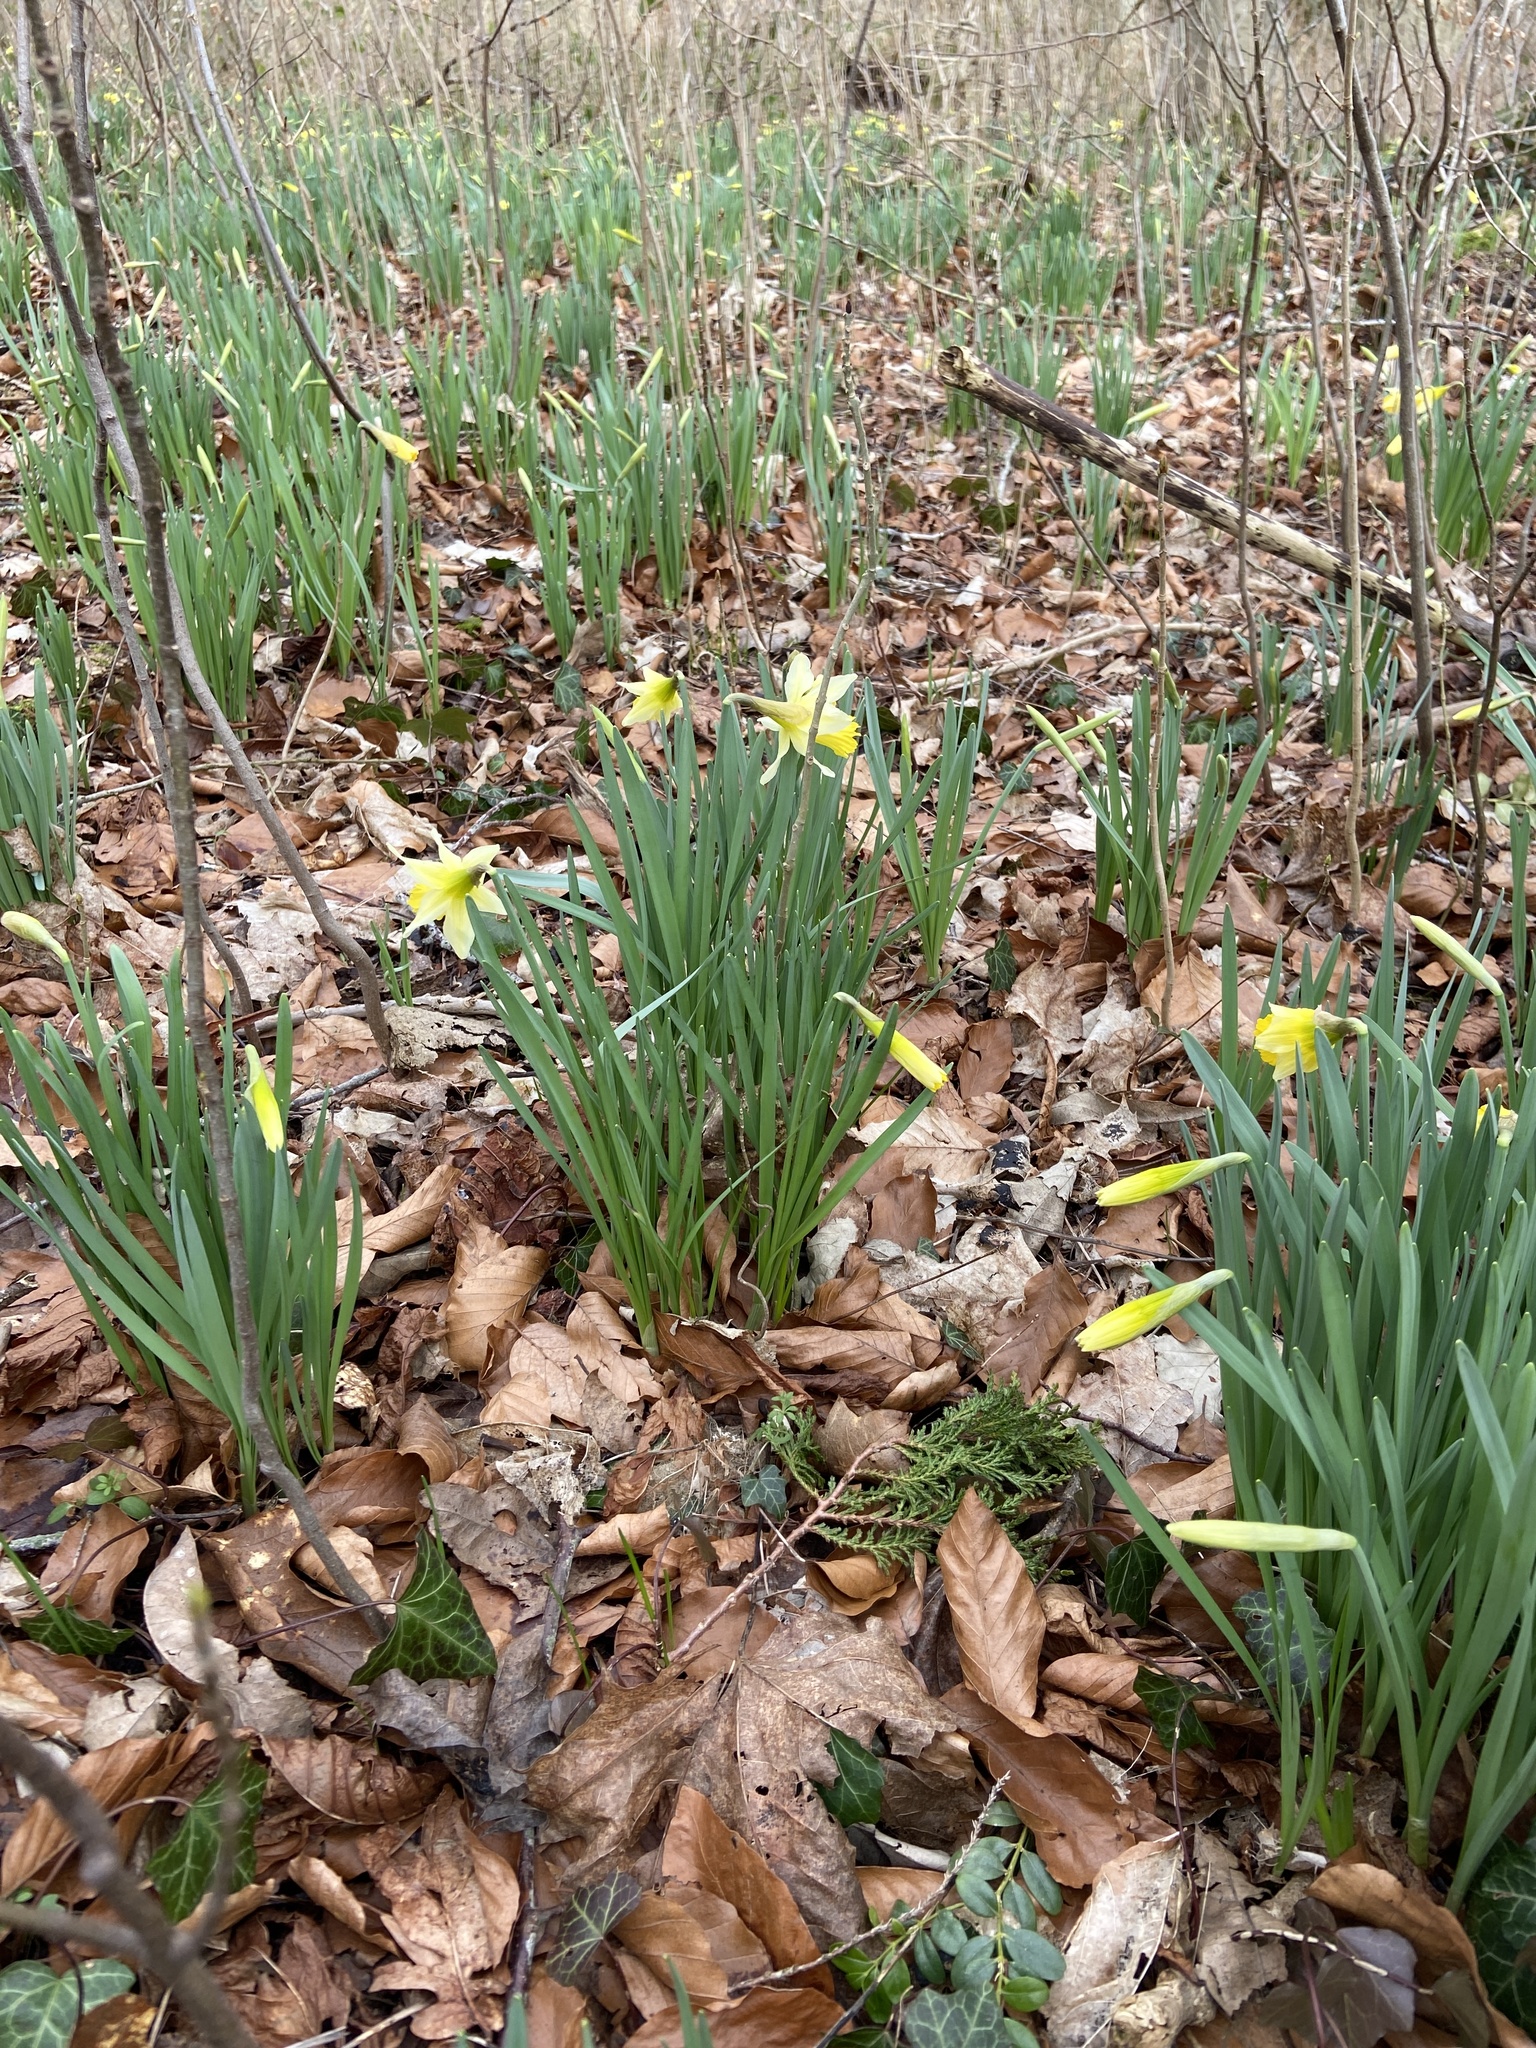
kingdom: Plantae
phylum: Tracheophyta
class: Liliopsida
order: Asparagales
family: Amaryllidaceae
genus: Narcissus
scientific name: Narcissus pseudonarcissus
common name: Daffodil
